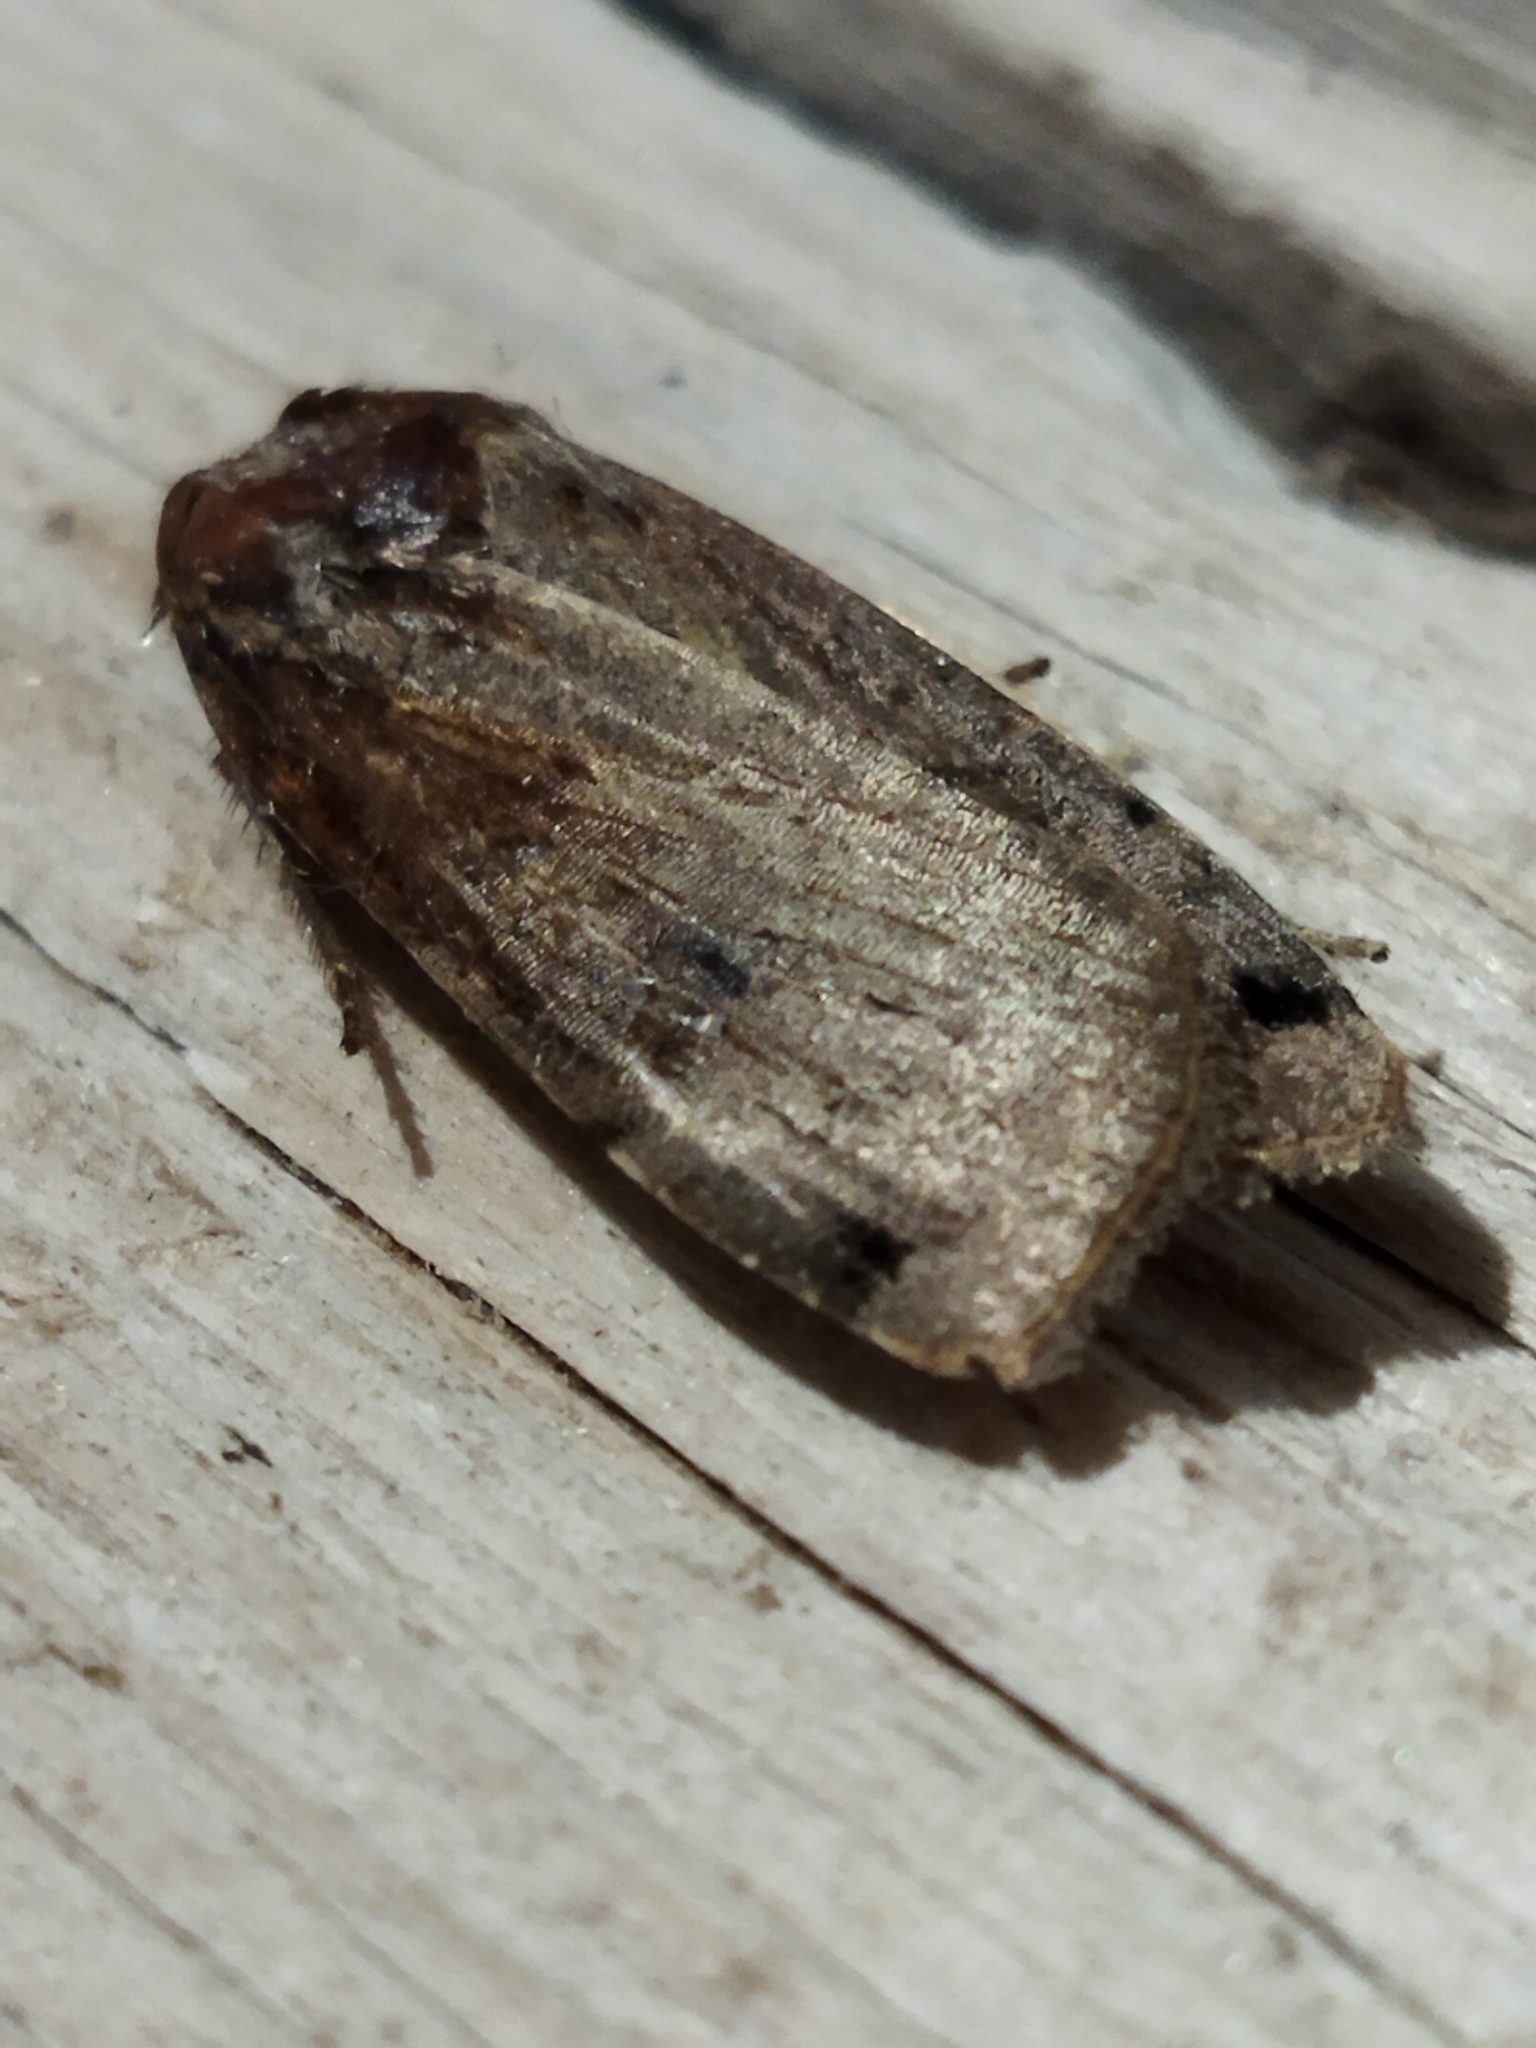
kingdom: Animalia
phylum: Arthropoda
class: Insecta
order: Lepidoptera
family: Noctuidae
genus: Noctua
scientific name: Noctua orbona
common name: Lunar yellow underwing
